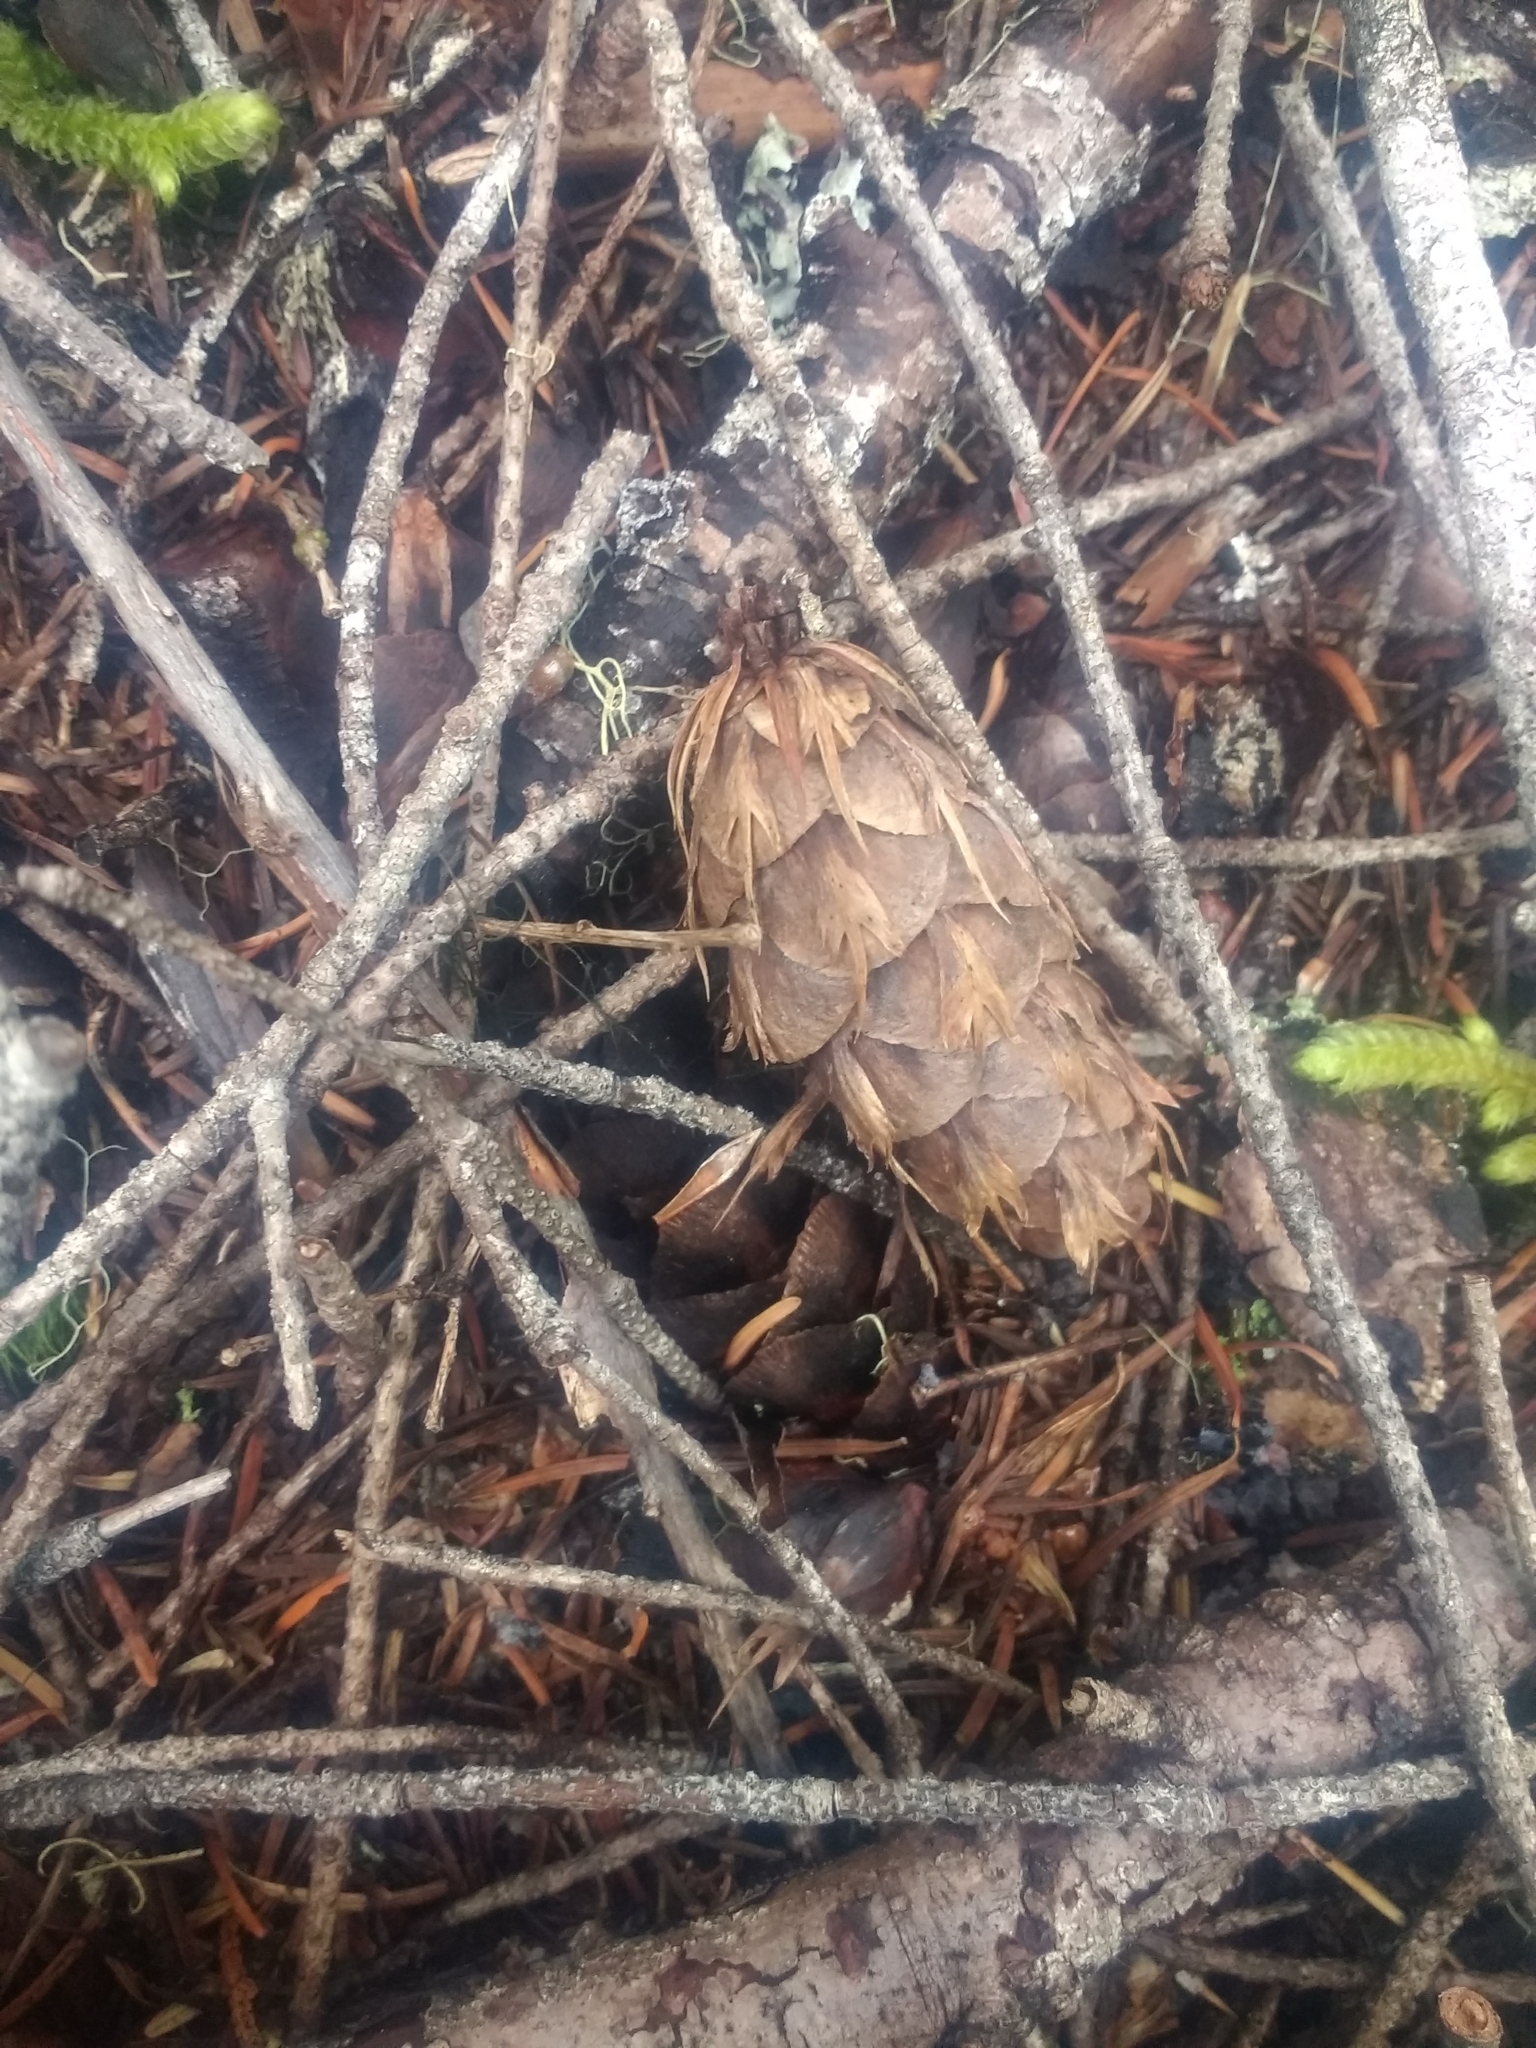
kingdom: Plantae
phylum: Tracheophyta
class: Pinopsida
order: Pinales
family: Pinaceae
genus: Pseudotsuga
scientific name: Pseudotsuga menziesii
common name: Douglas fir
